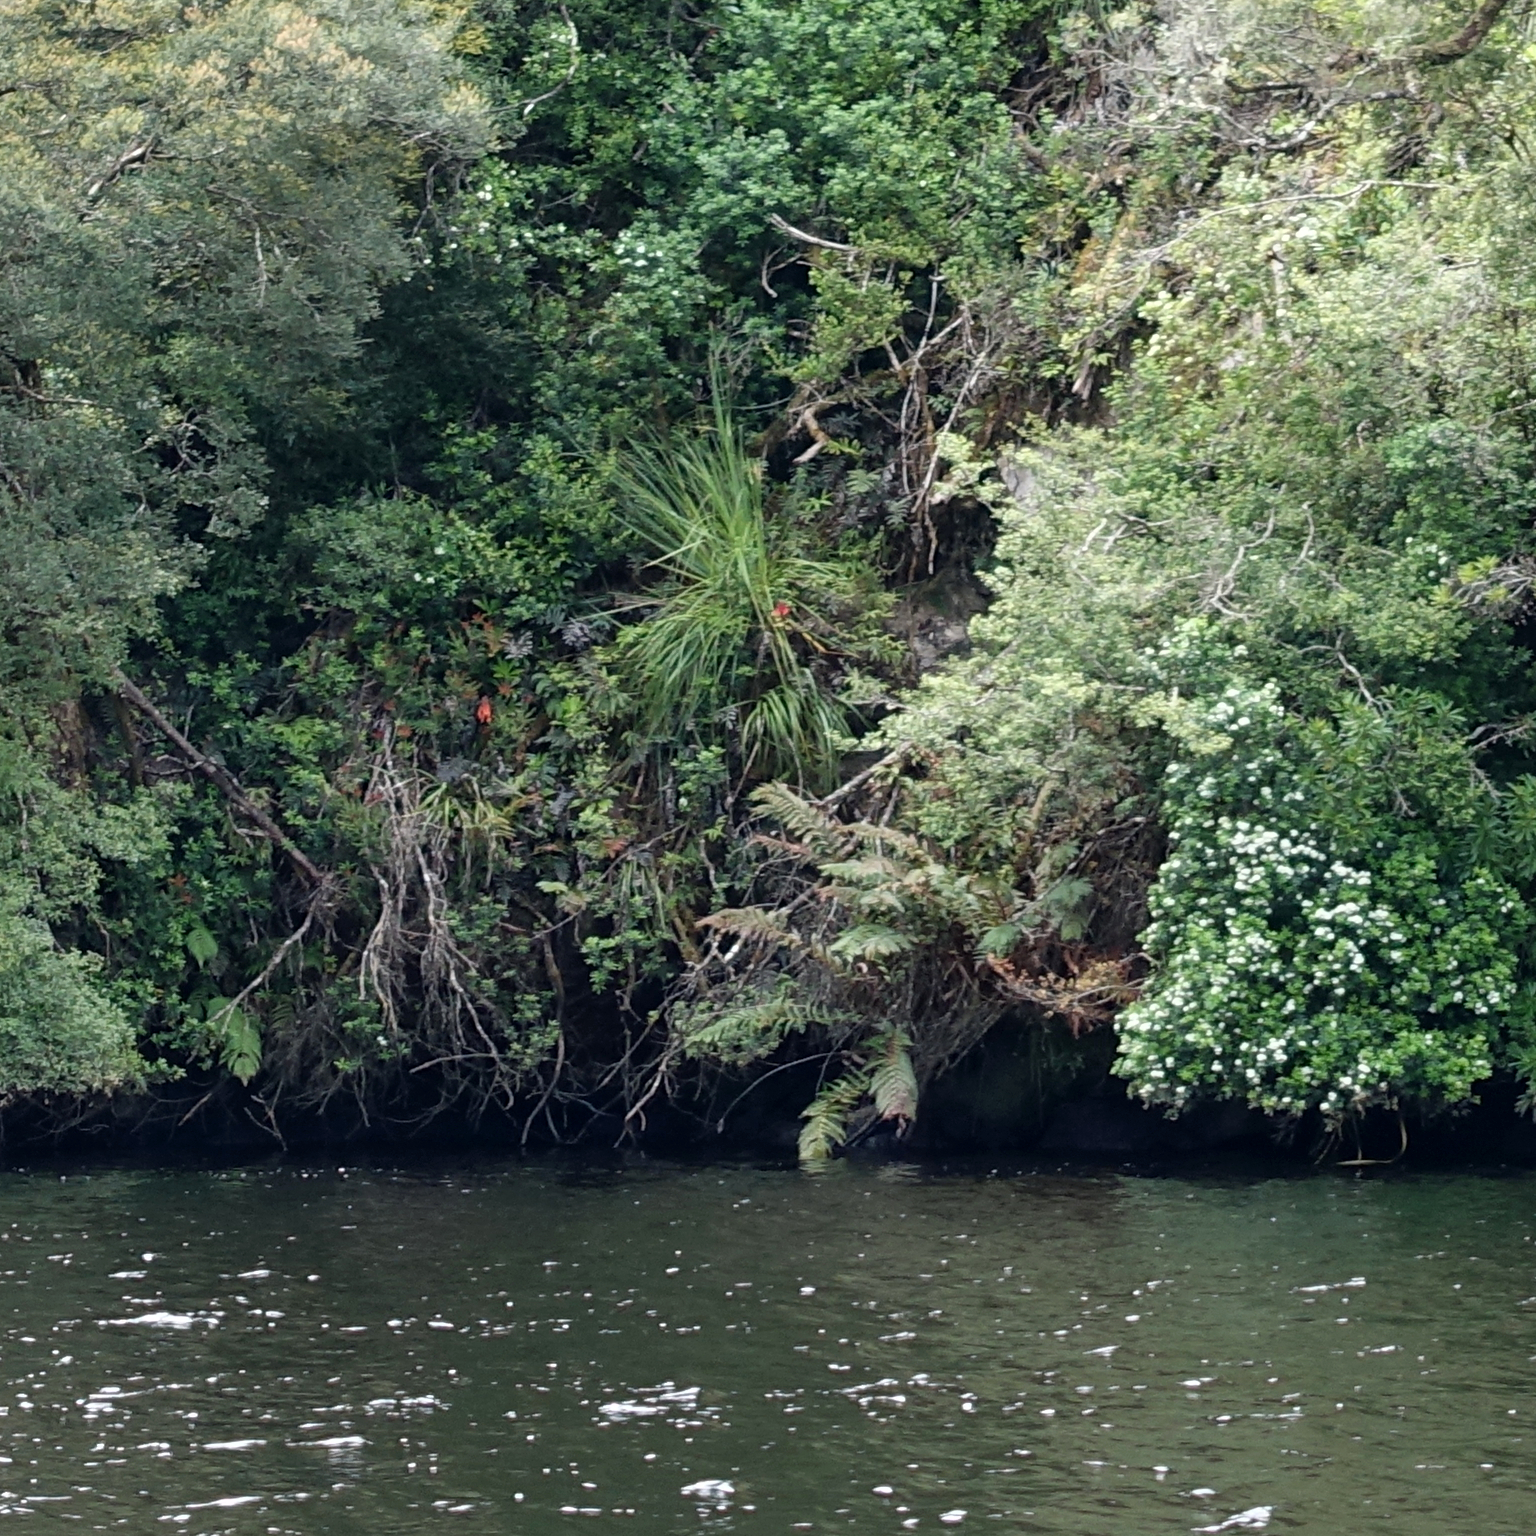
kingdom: Plantae
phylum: Tracheophyta
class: Liliopsida
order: Asparagales
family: Blandfordiaceae
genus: Blandfordia
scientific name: Blandfordia punicea
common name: Tasmanian christmas-bell
